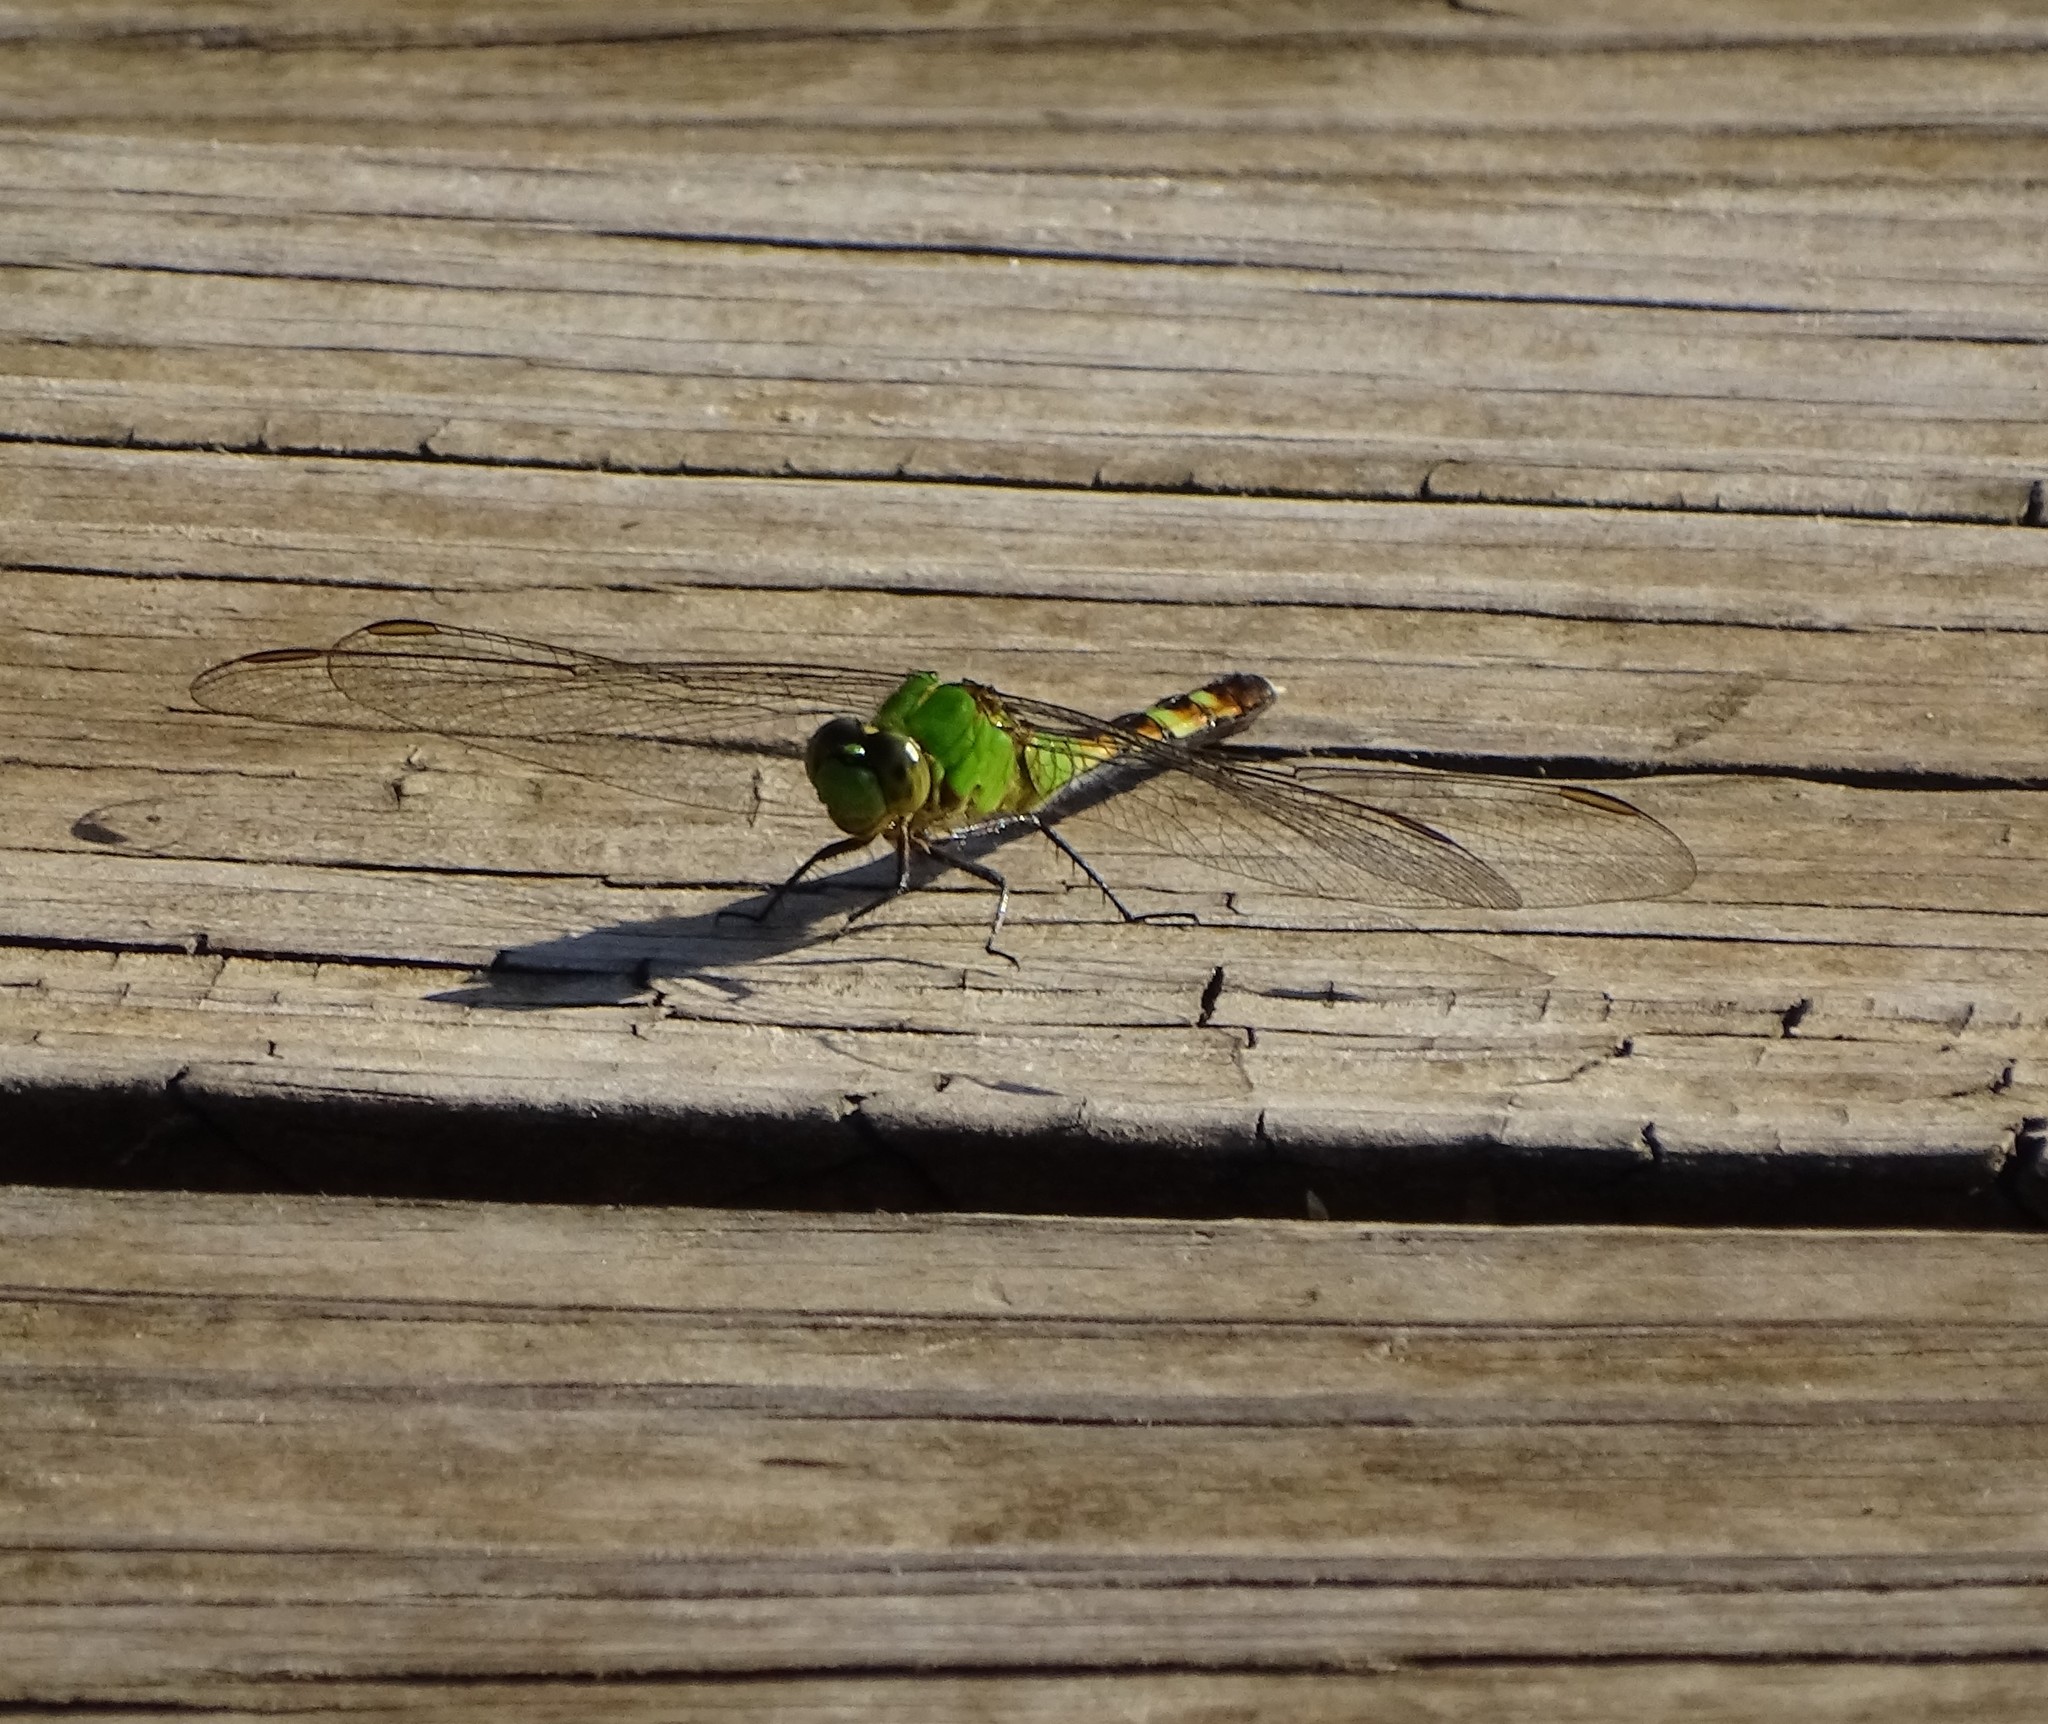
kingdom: Animalia
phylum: Arthropoda
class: Insecta
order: Odonata
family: Libellulidae
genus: Erythemis
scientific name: Erythemis simplicicollis
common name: Eastern pondhawk
